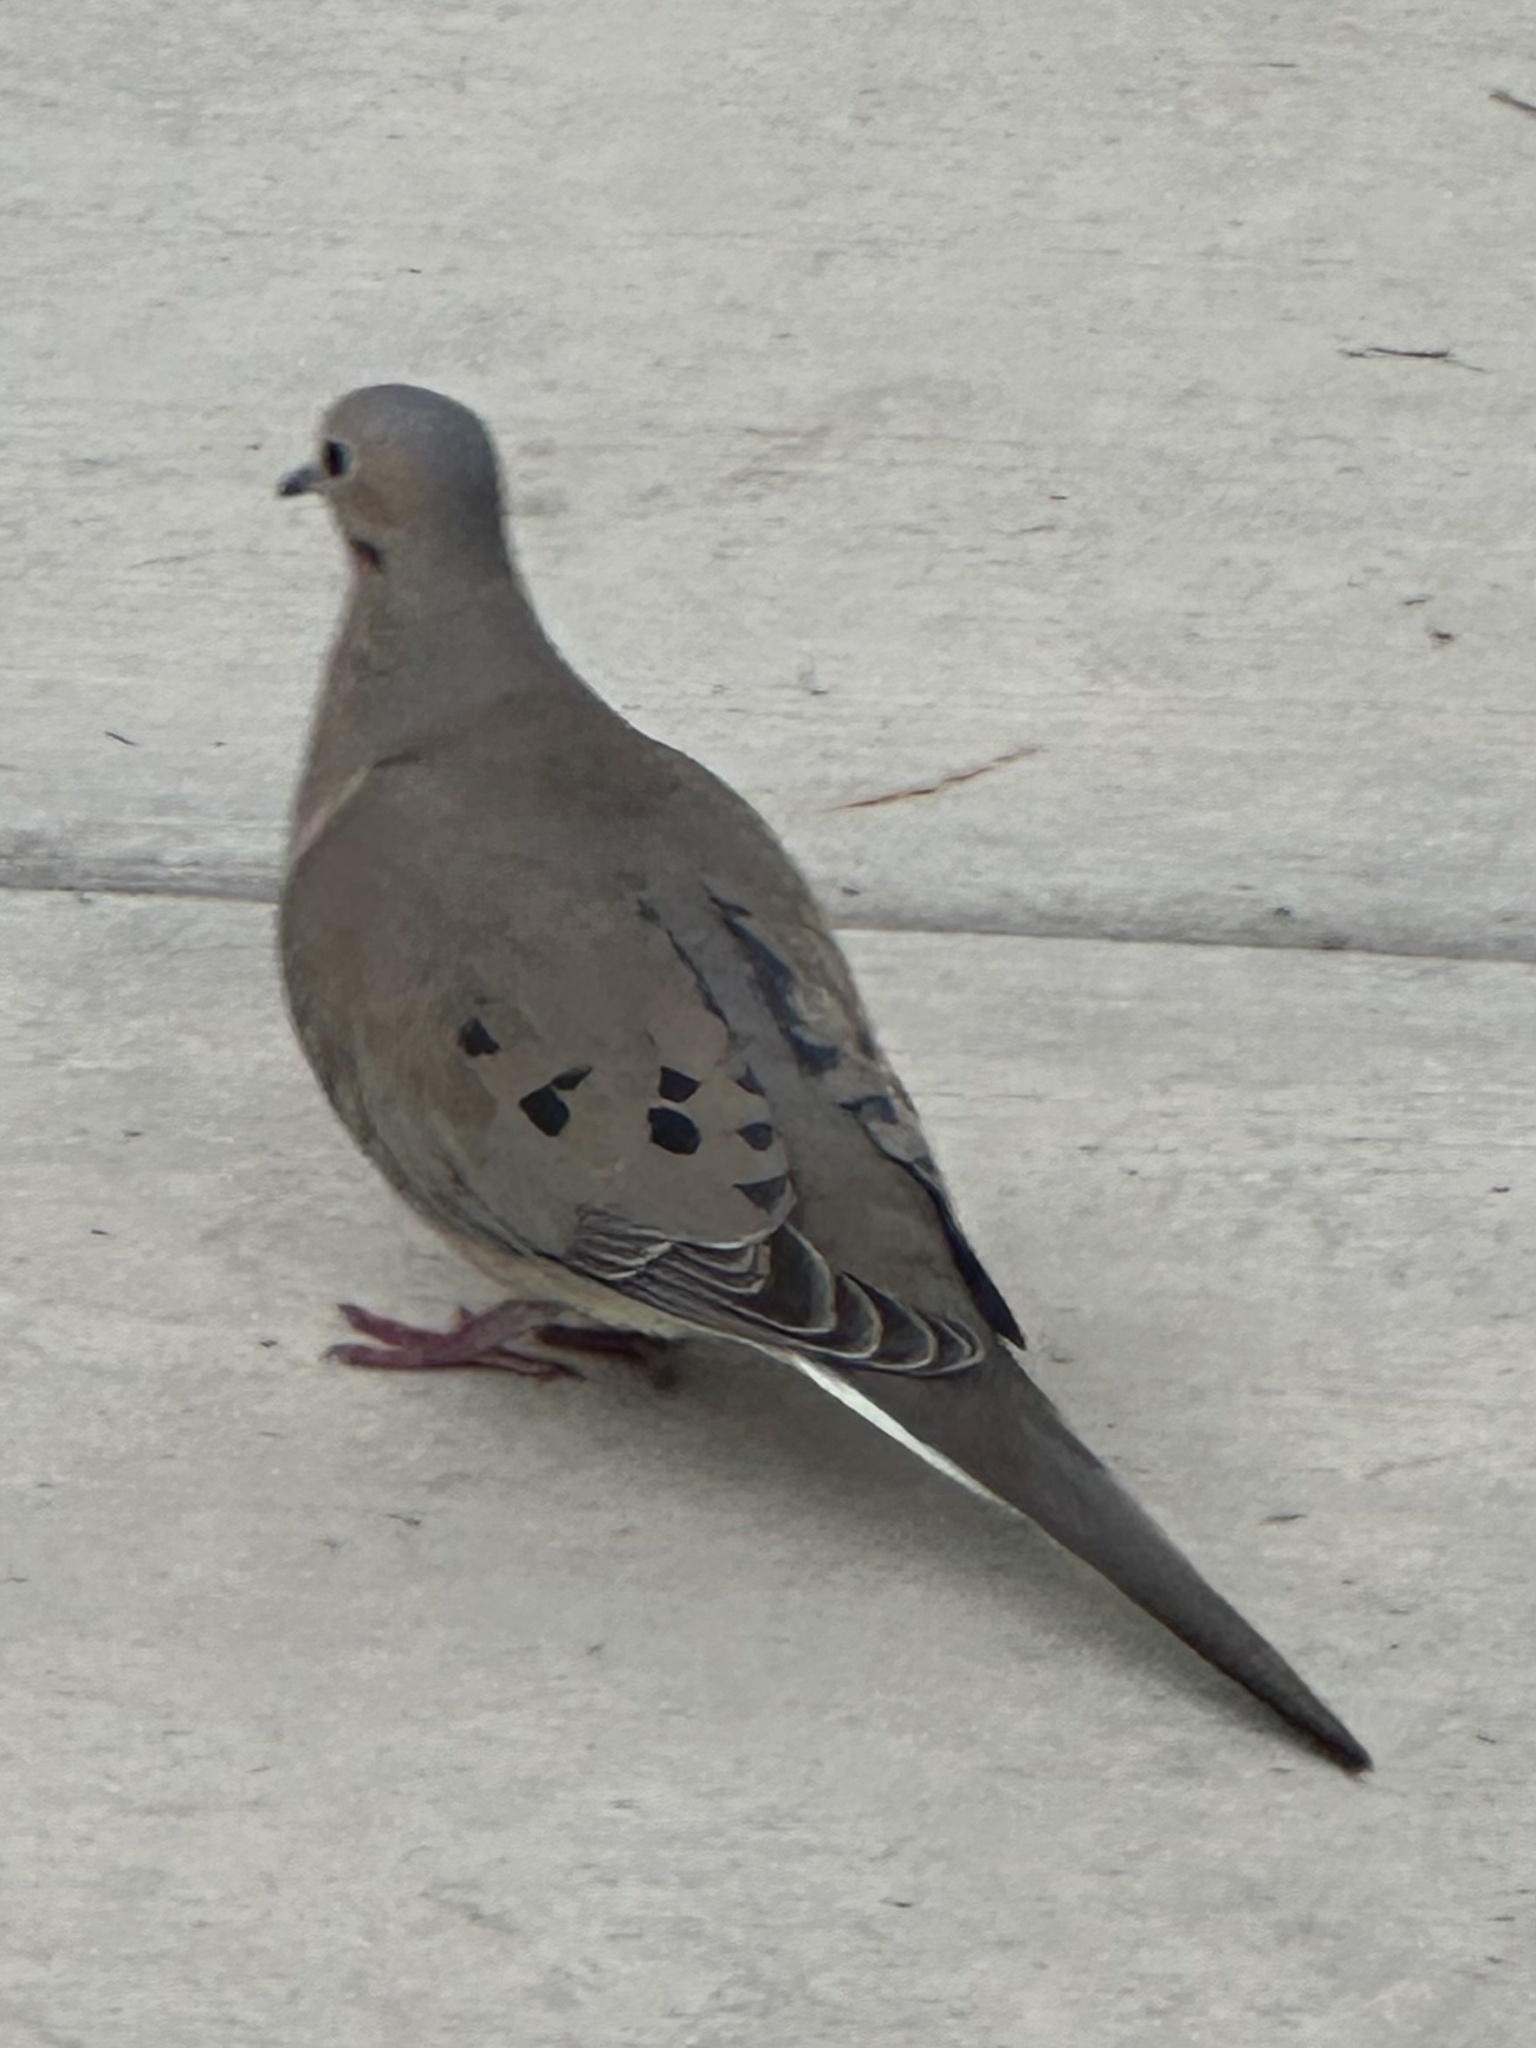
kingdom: Animalia
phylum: Chordata
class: Aves
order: Columbiformes
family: Columbidae
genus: Zenaida
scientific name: Zenaida macroura
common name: Mourning dove
